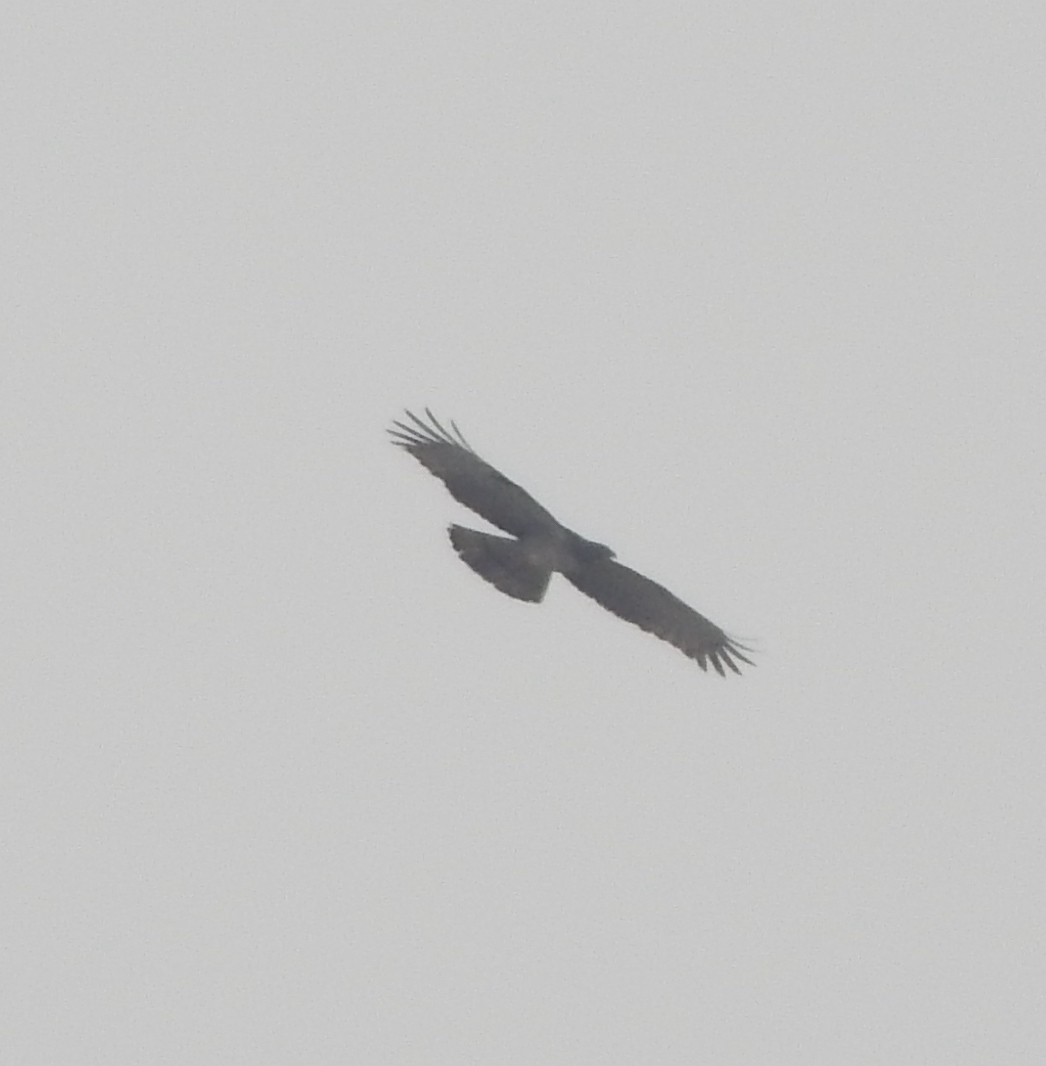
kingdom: Animalia
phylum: Chordata
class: Aves
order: Accipitriformes
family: Accipitridae
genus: Pernis
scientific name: Pernis ptilorhynchus
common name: Crested honey buzzard
